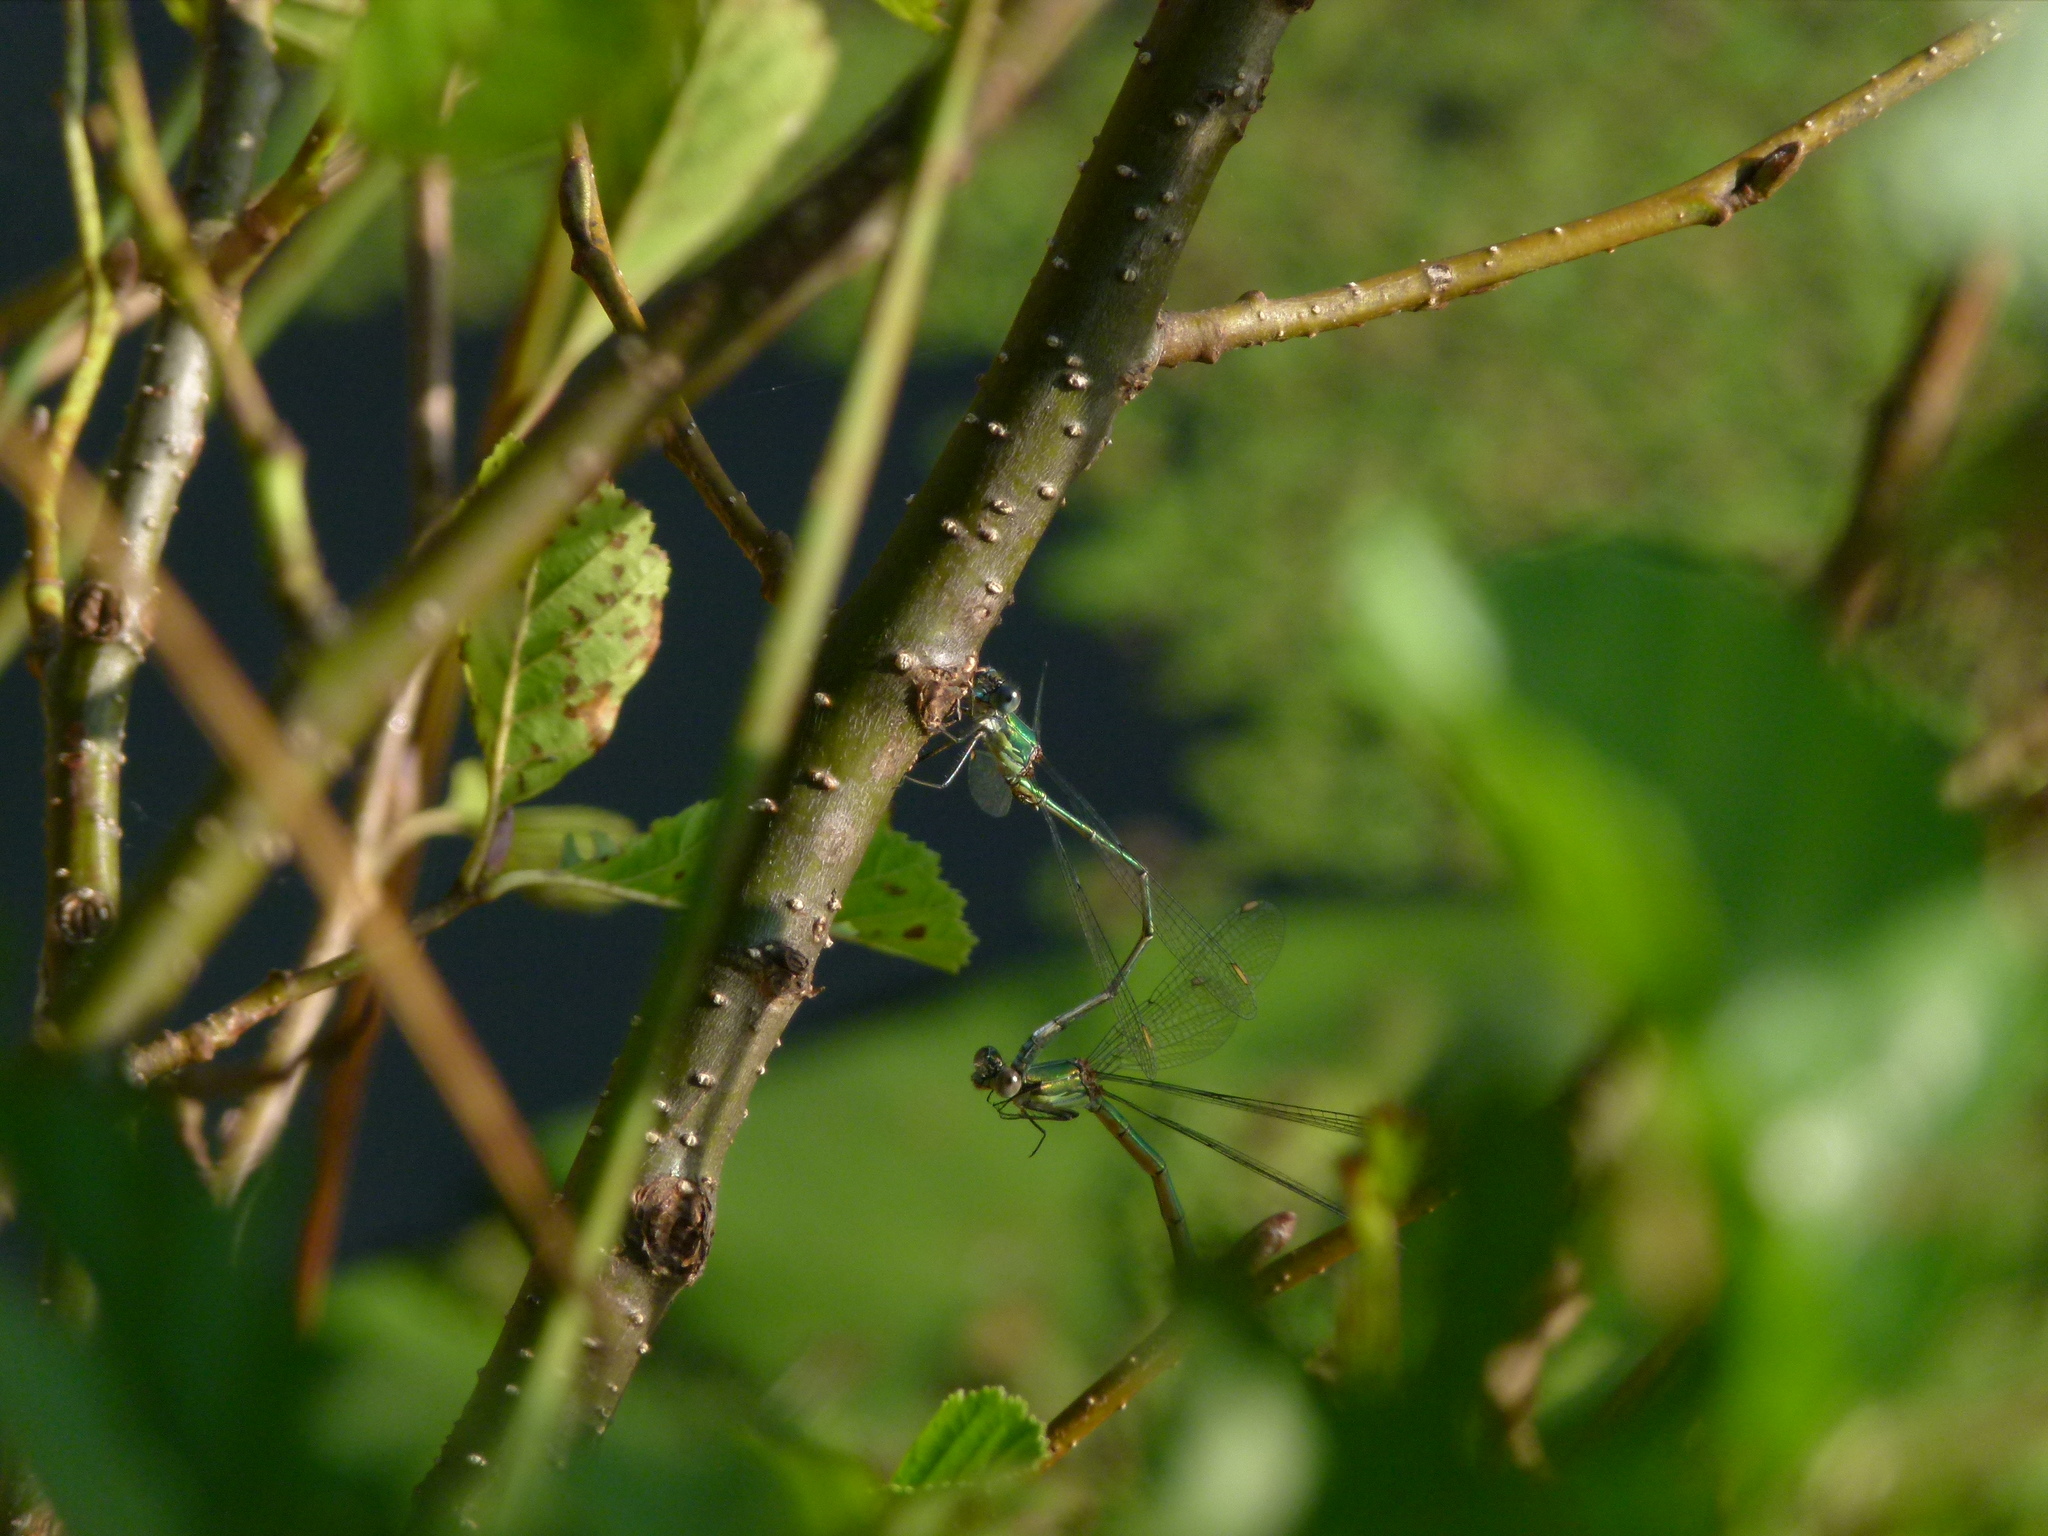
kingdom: Animalia
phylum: Arthropoda
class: Insecta
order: Odonata
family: Lestidae
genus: Chalcolestes
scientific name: Chalcolestes viridis
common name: Green emerald damselfly
